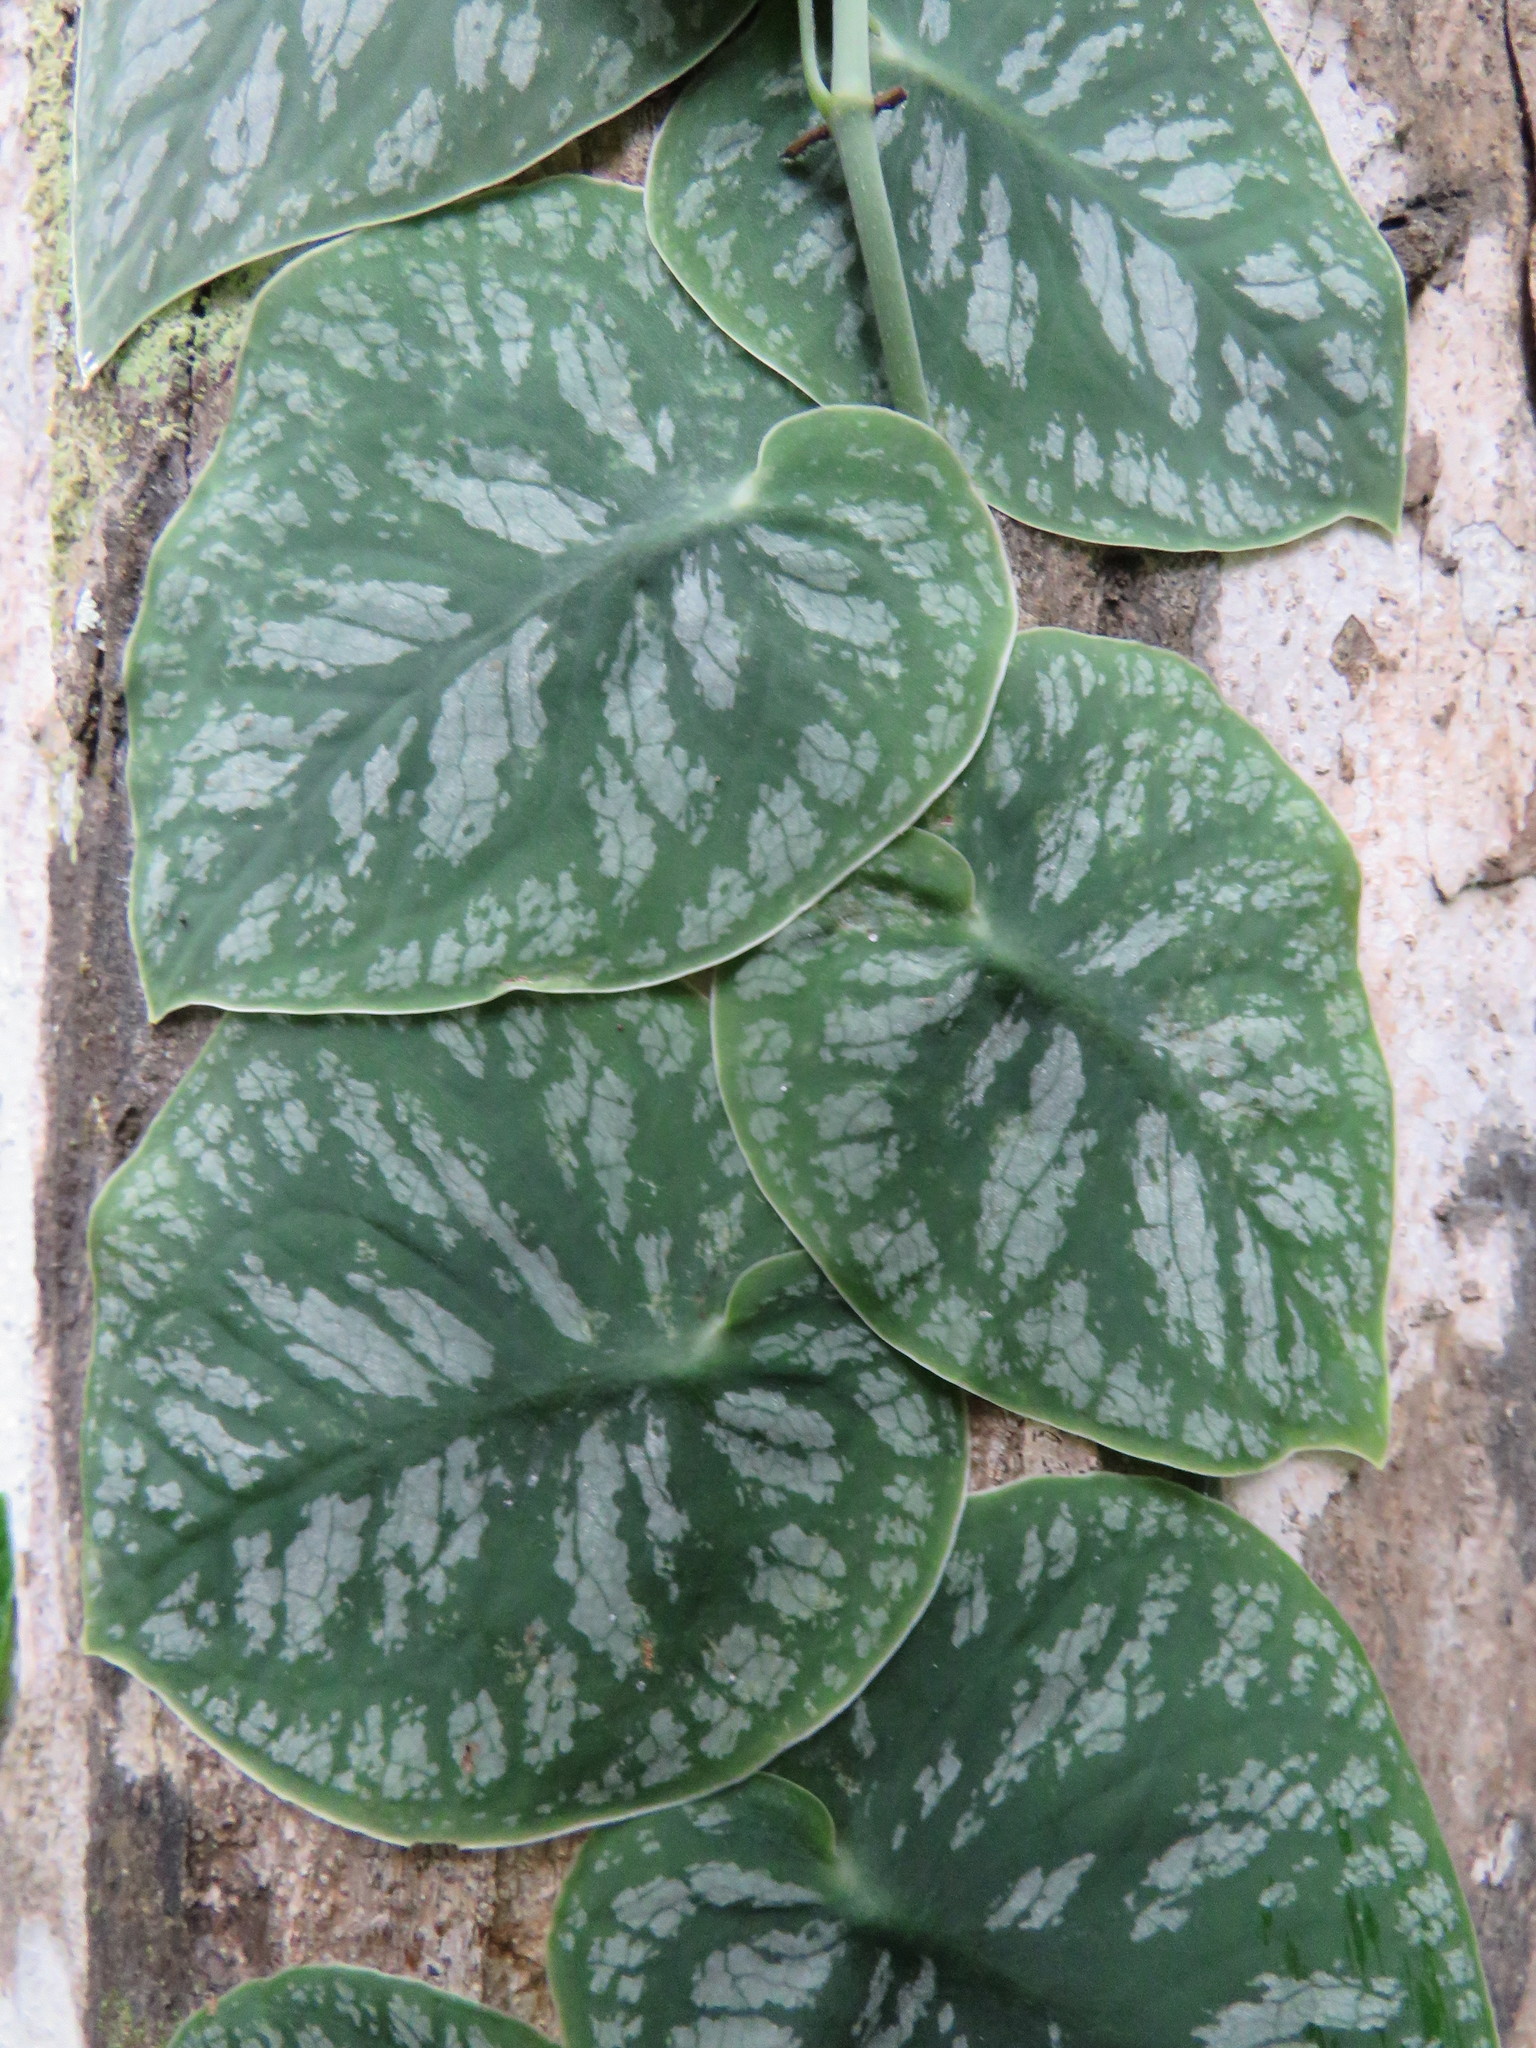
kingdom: Plantae
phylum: Tracheophyta
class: Liliopsida
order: Alismatales
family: Araceae
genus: Monstera
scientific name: Monstera dubia
